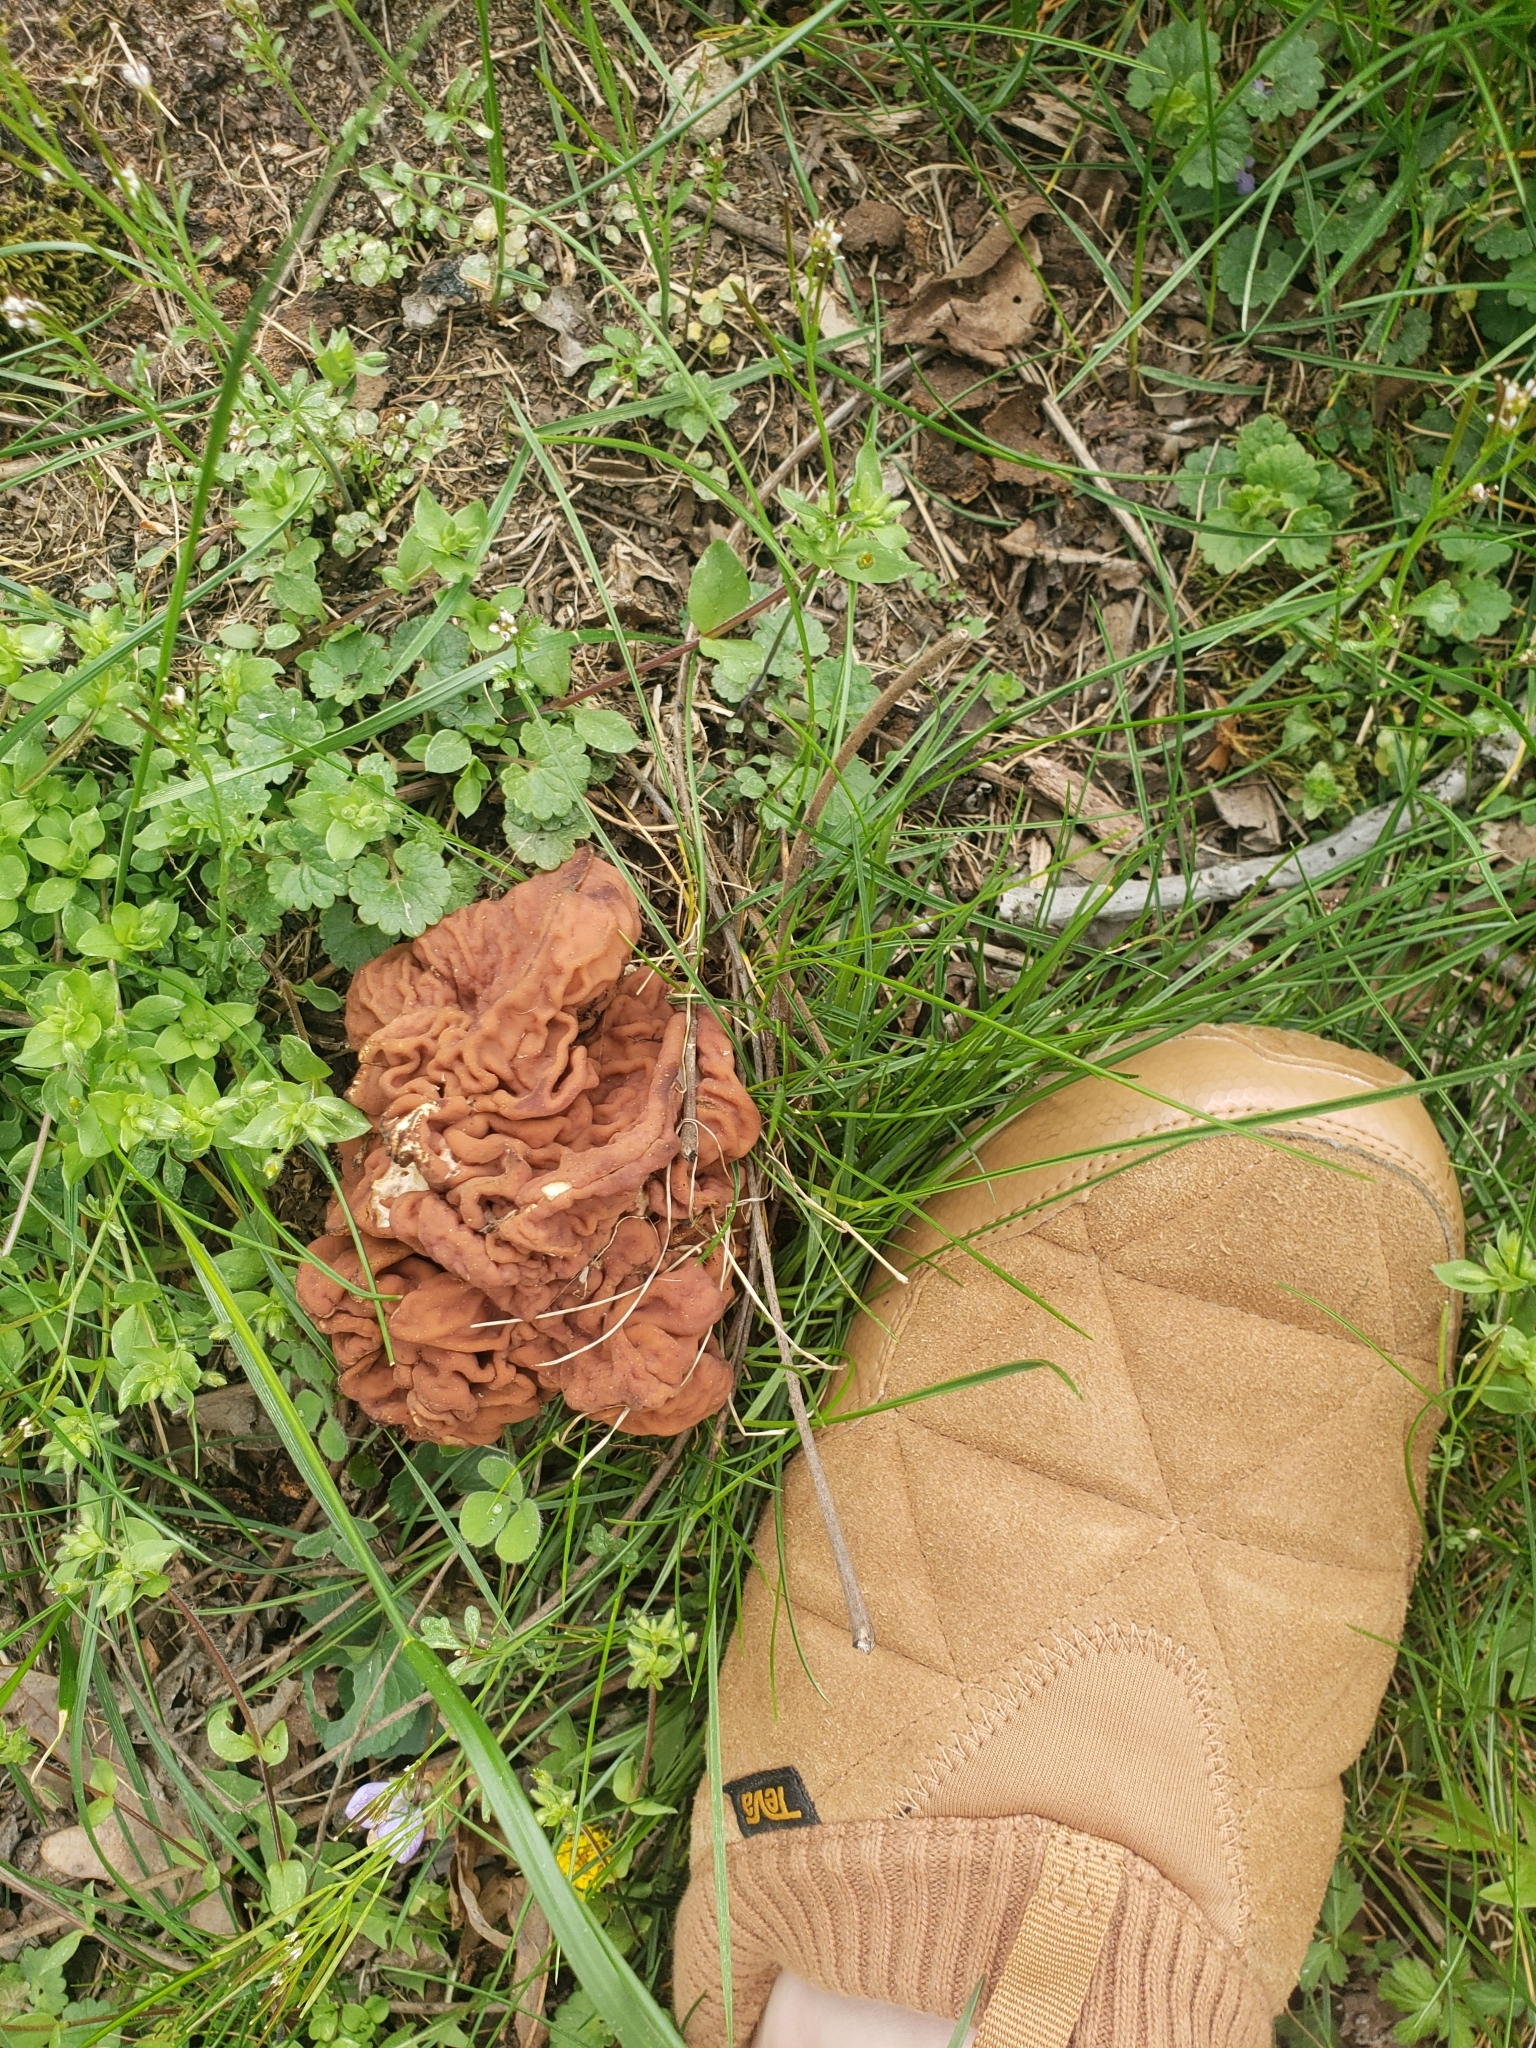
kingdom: Fungi
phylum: Ascomycota
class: Pezizomycetes
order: Pezizales
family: Discinaceae
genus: Discina
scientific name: Discina brunnea
